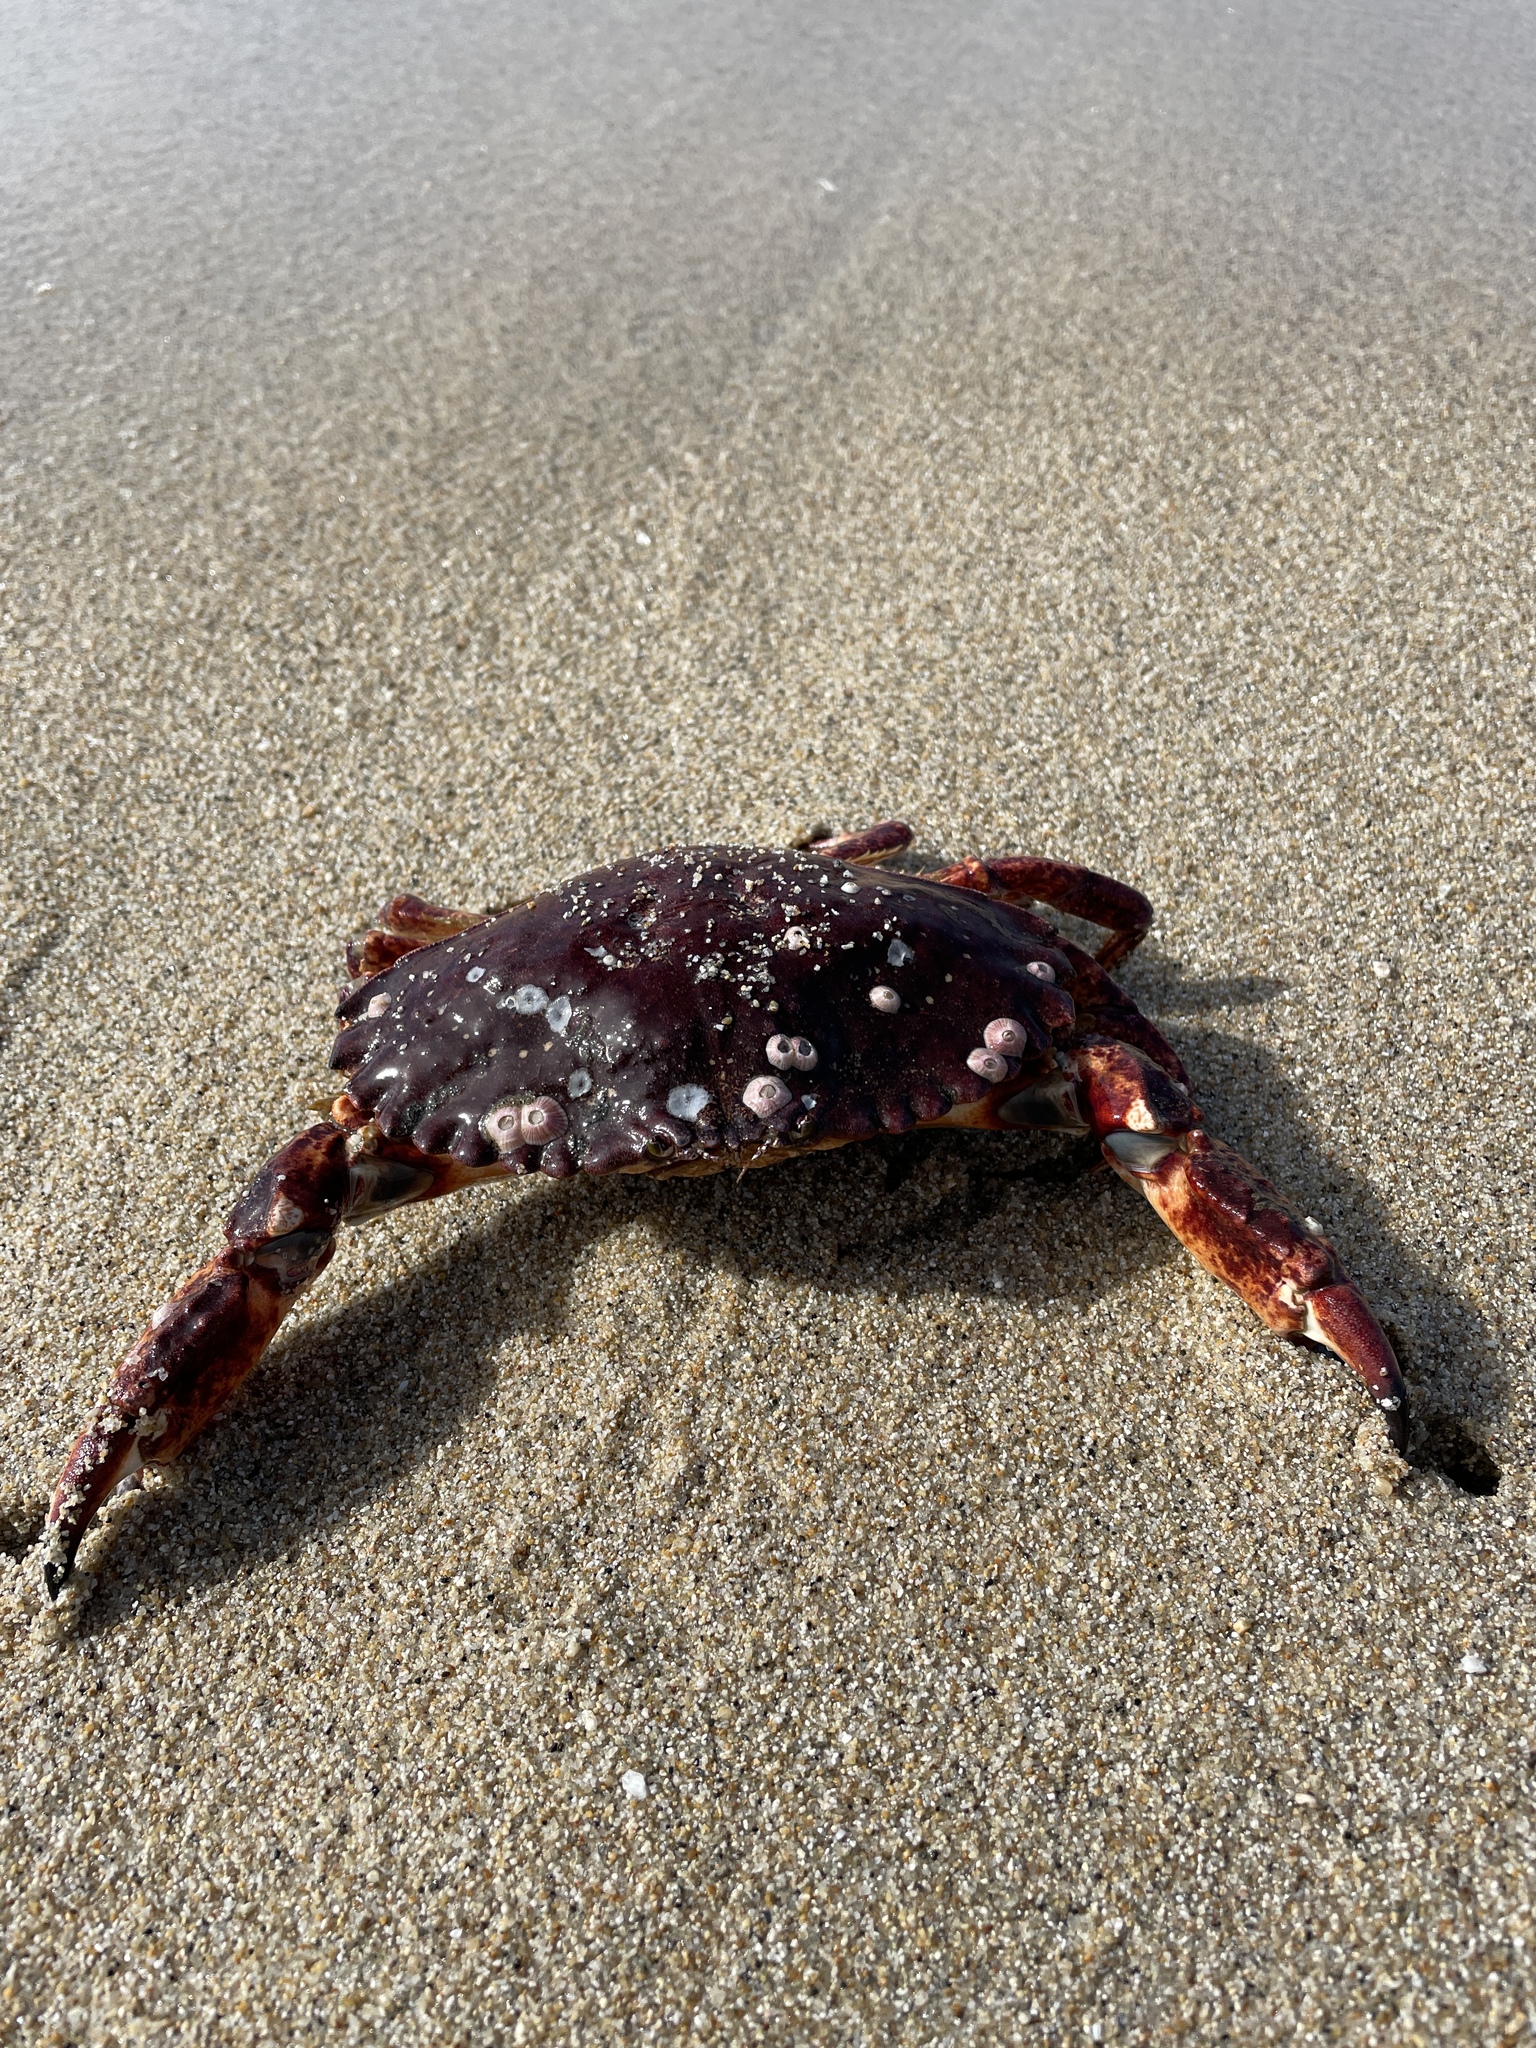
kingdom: Animalia
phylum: Arthropoda
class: Malacostraca
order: Decapoda
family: Cancridae
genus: Cancer
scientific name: Cancer productus
